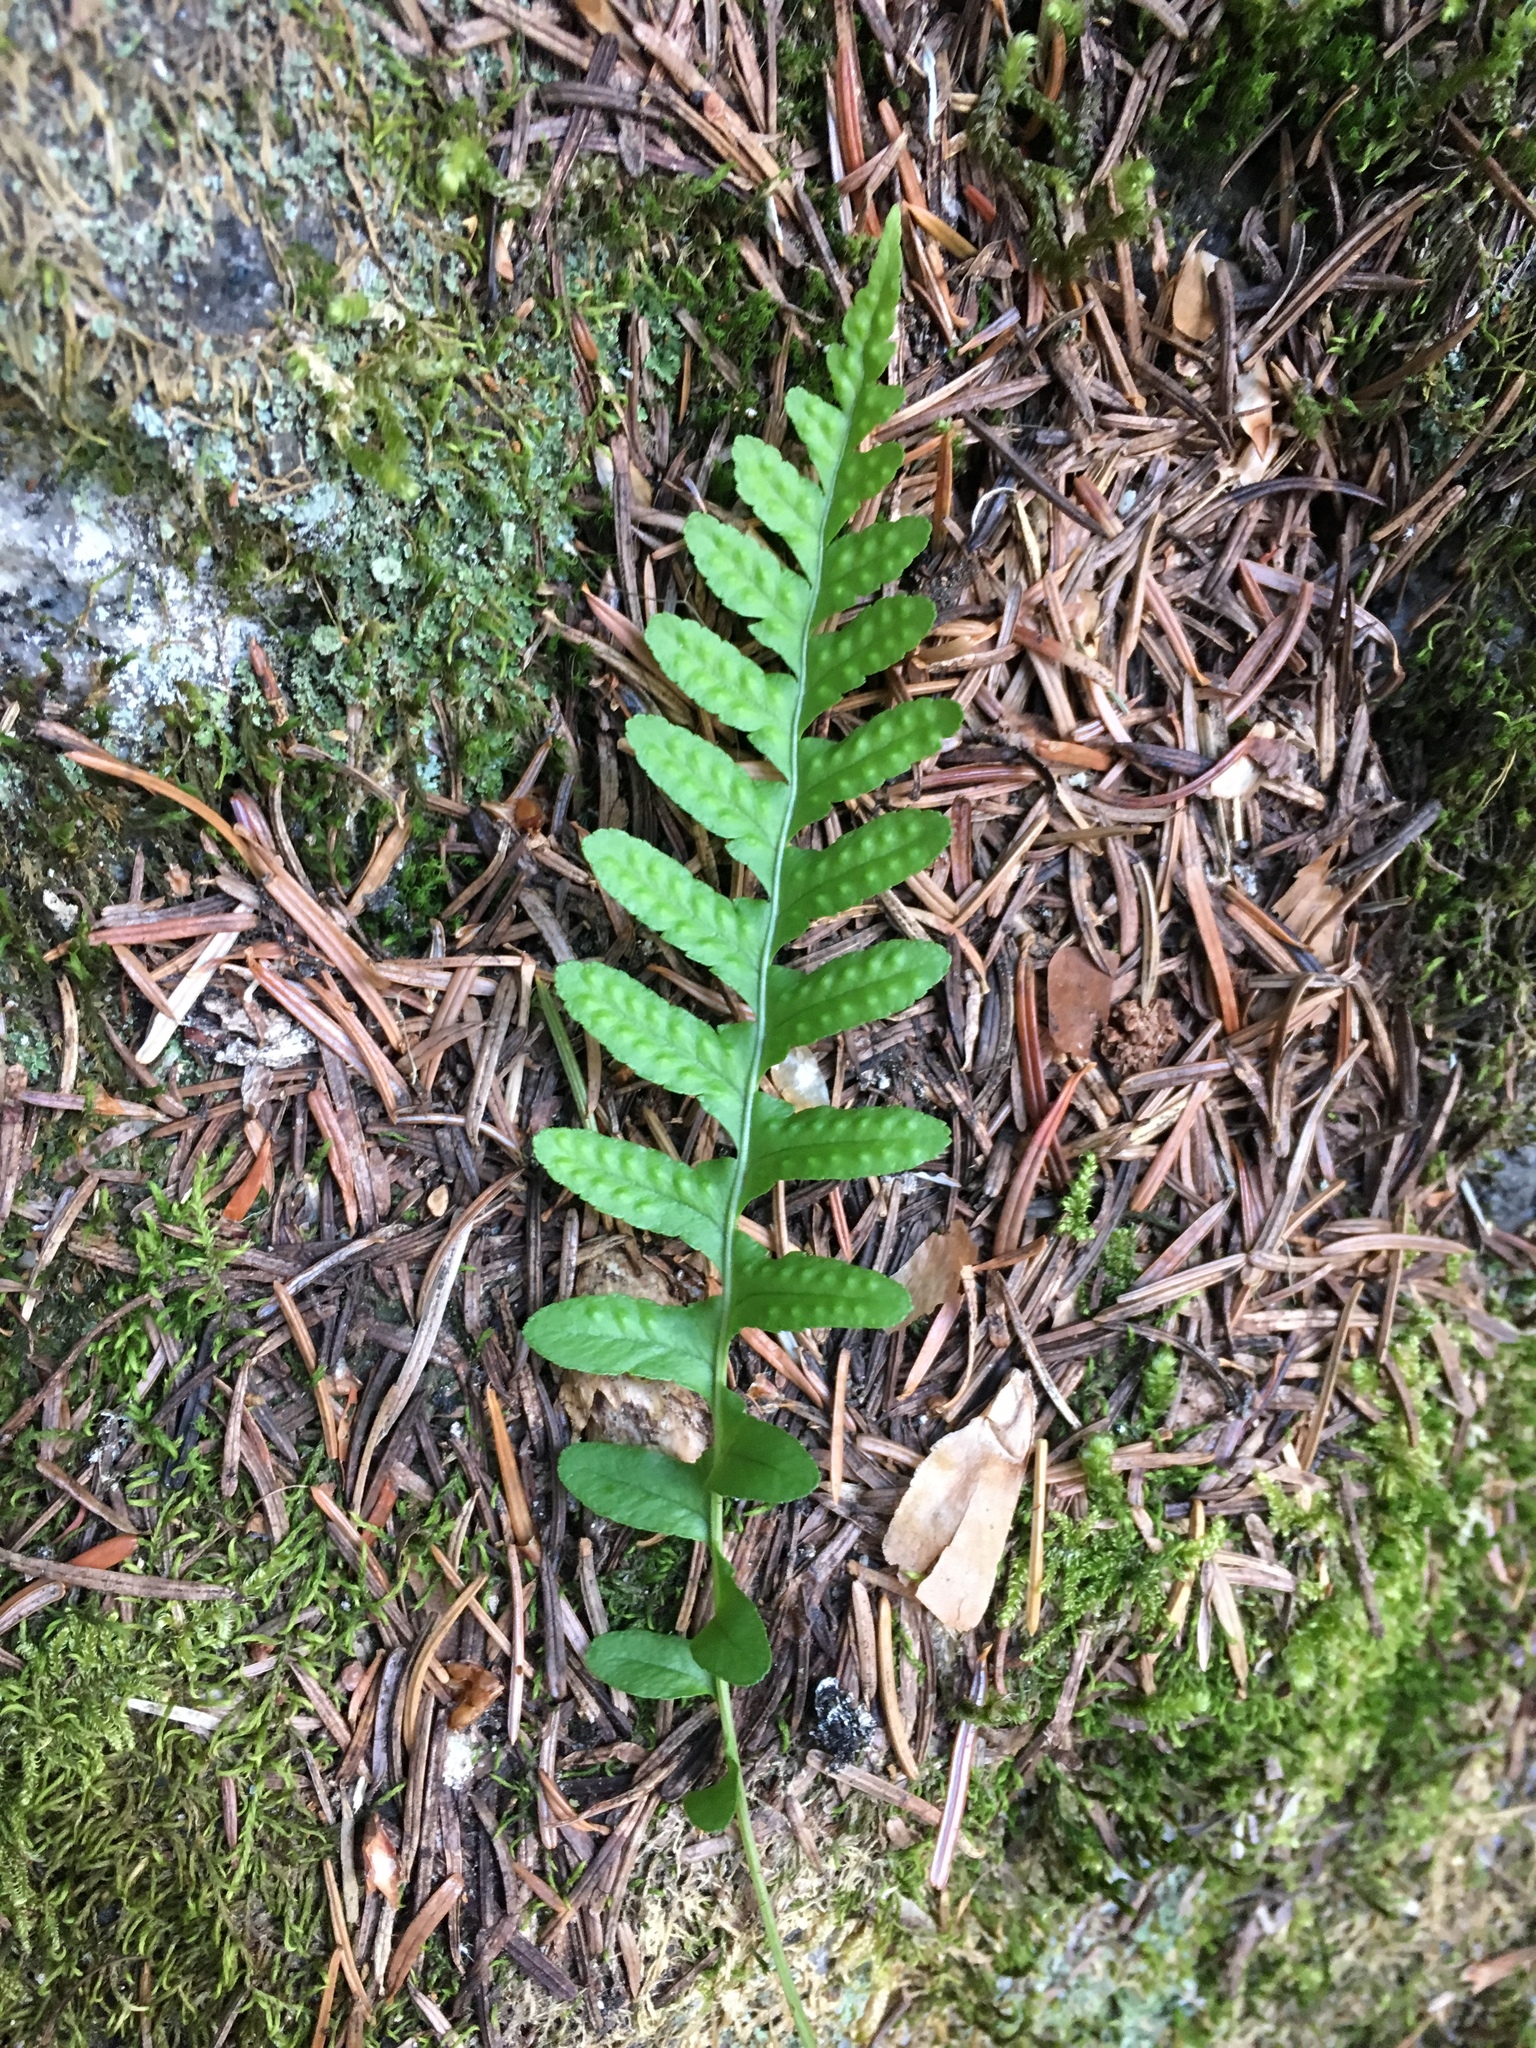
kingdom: Plantae
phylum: Tracheophyta
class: Polypodiopsida
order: Polypodiales
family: Polypodiaceae
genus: Polypodium
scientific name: Polypodium amorphum
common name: Pacific polypody
